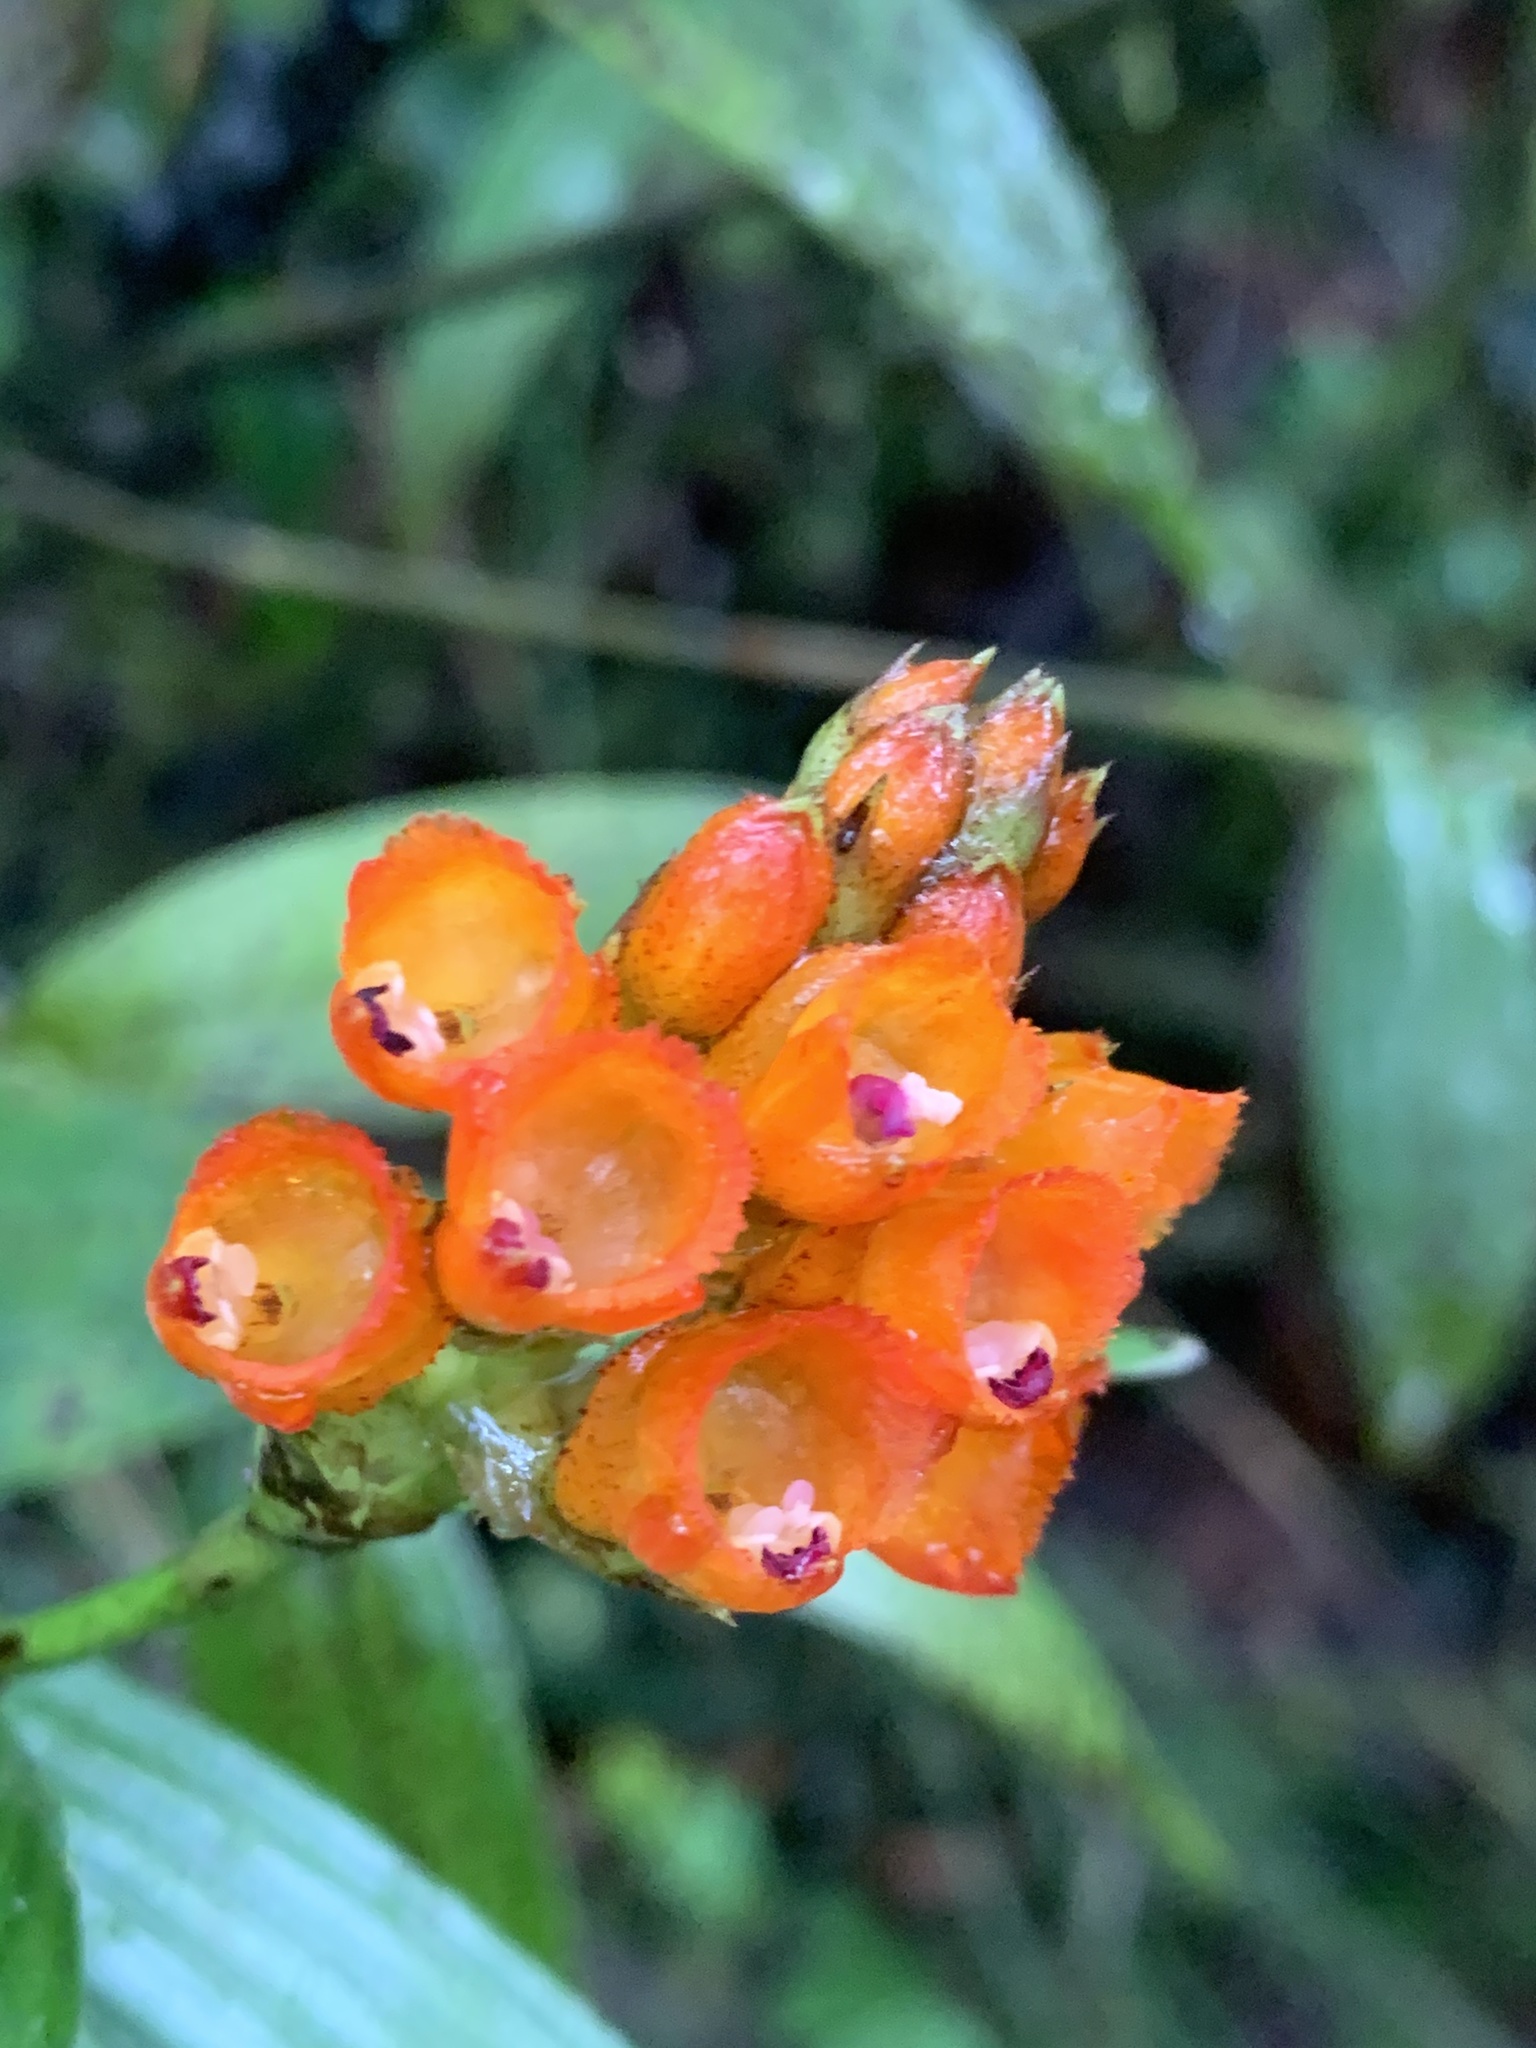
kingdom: Plantae
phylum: Tracheophyta
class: Liliopsida
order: Asparagales
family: Orchidaceae
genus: Elleanthus
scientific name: Elleanthus aurantiacus
